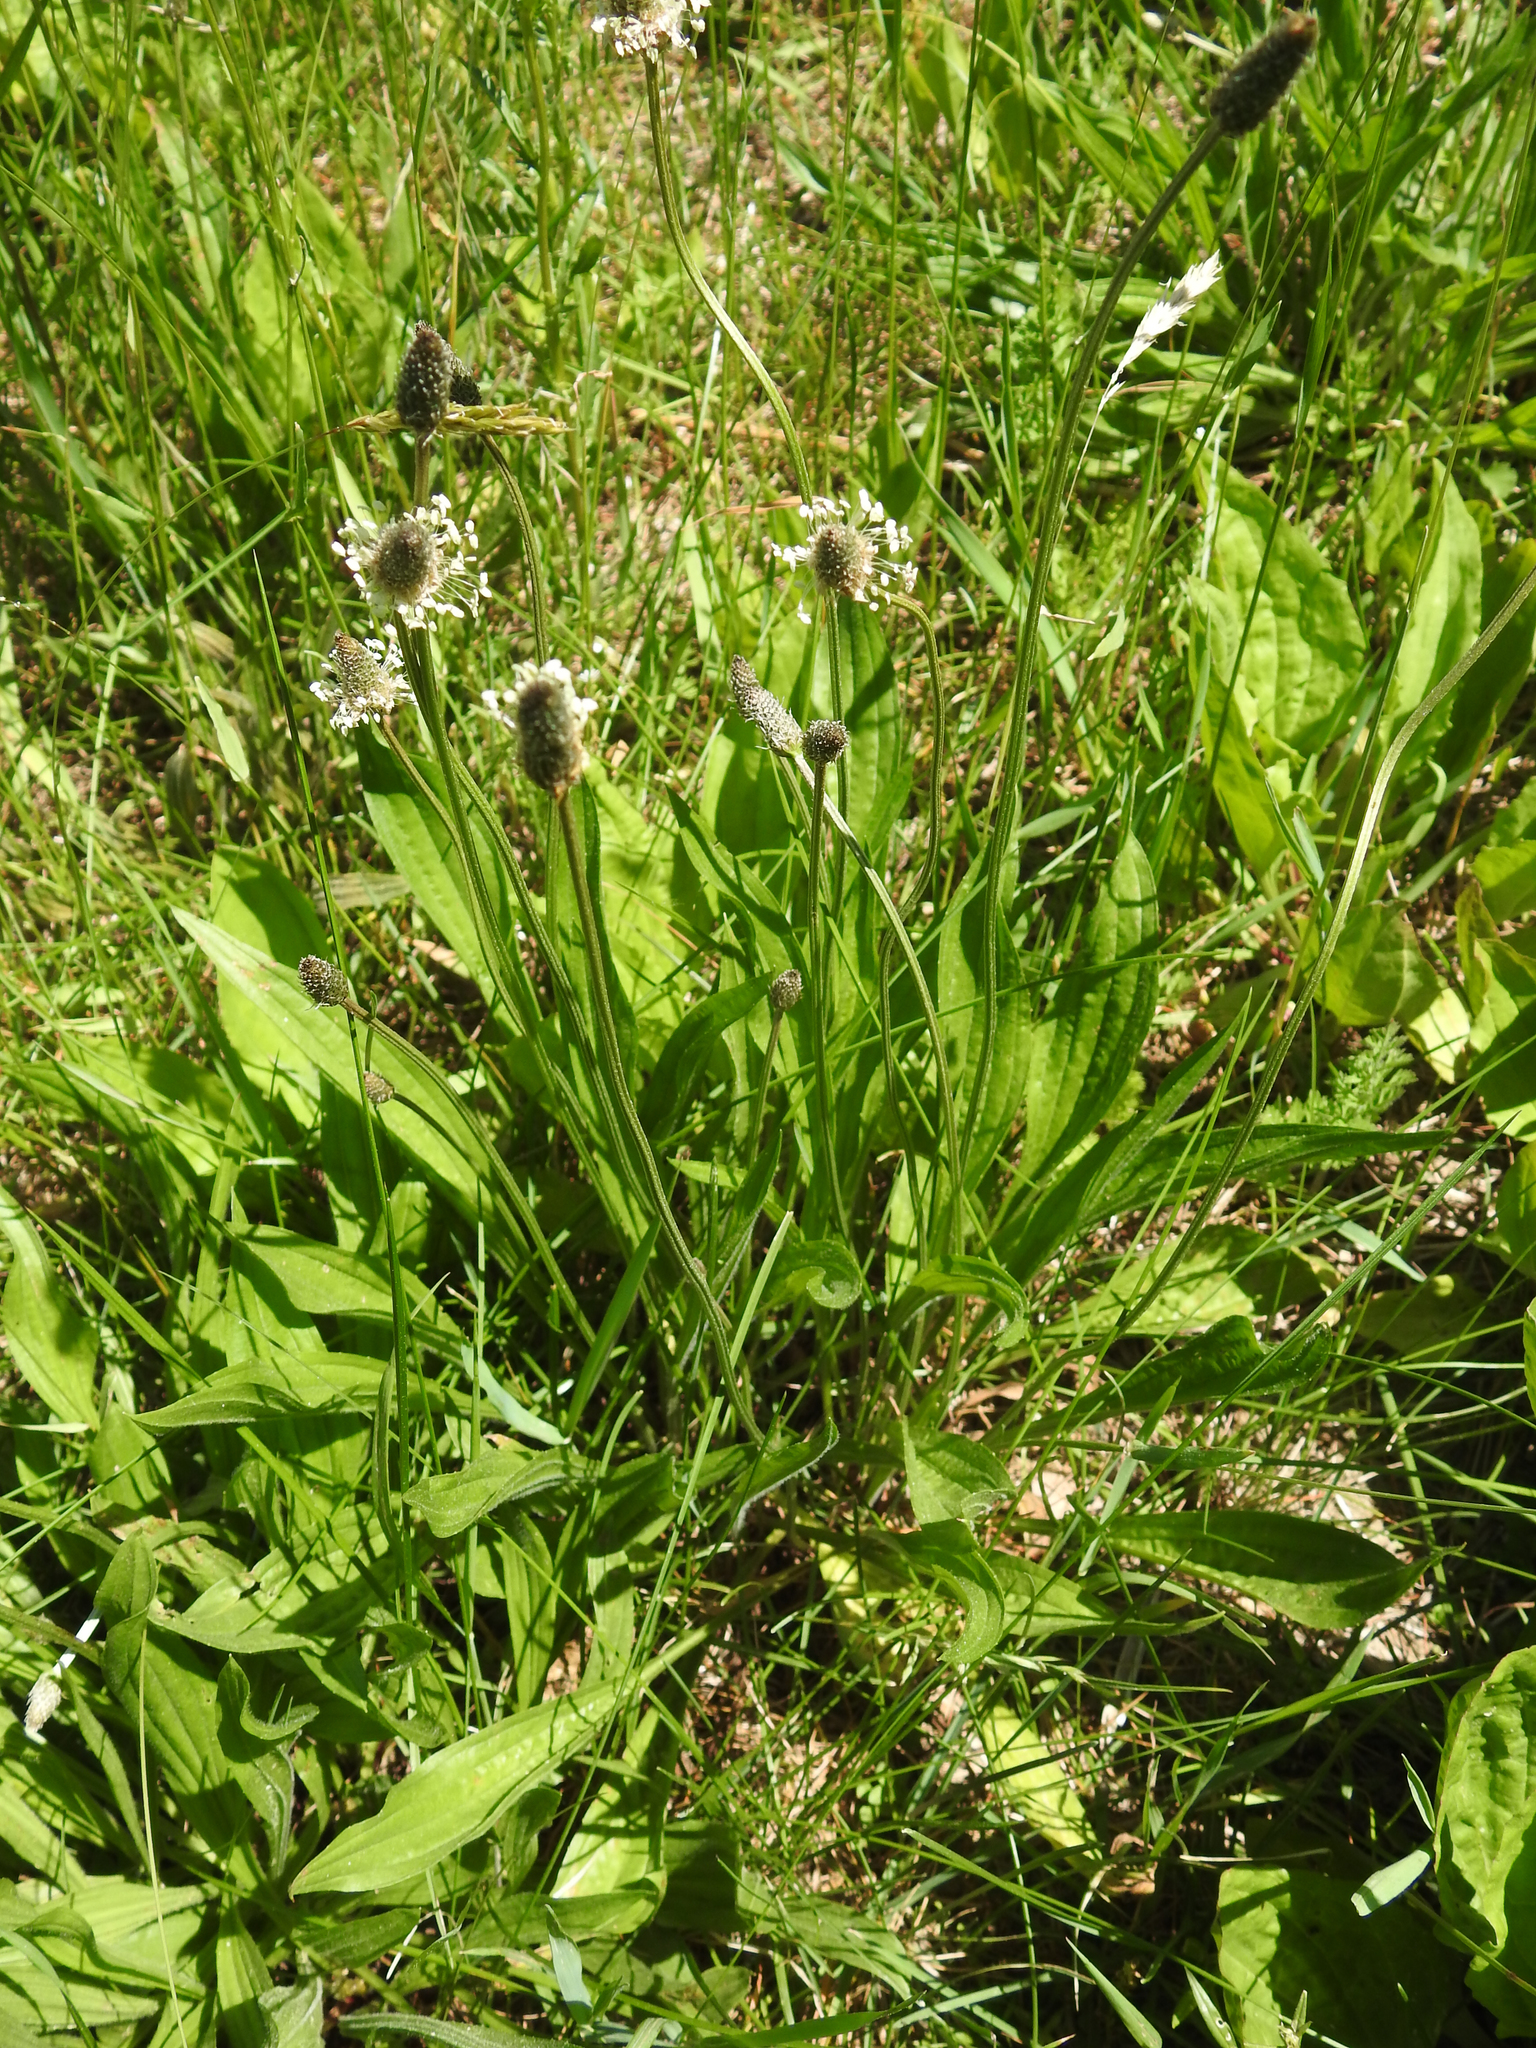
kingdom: Plantae
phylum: Tracheophyta
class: Magnoliopsida
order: Lamiales
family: Plantaginaceae
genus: Plantago
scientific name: Plantago lanceolata
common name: Ribwort plantain
